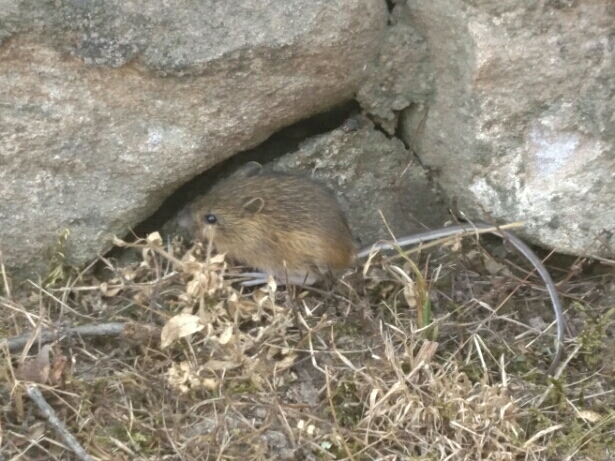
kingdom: Animalia
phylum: Chordata
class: Mammalia
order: Rodentia
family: Dipodidae
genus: Zapus
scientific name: Zapus hudsonius
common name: Meadow jumping mouse
